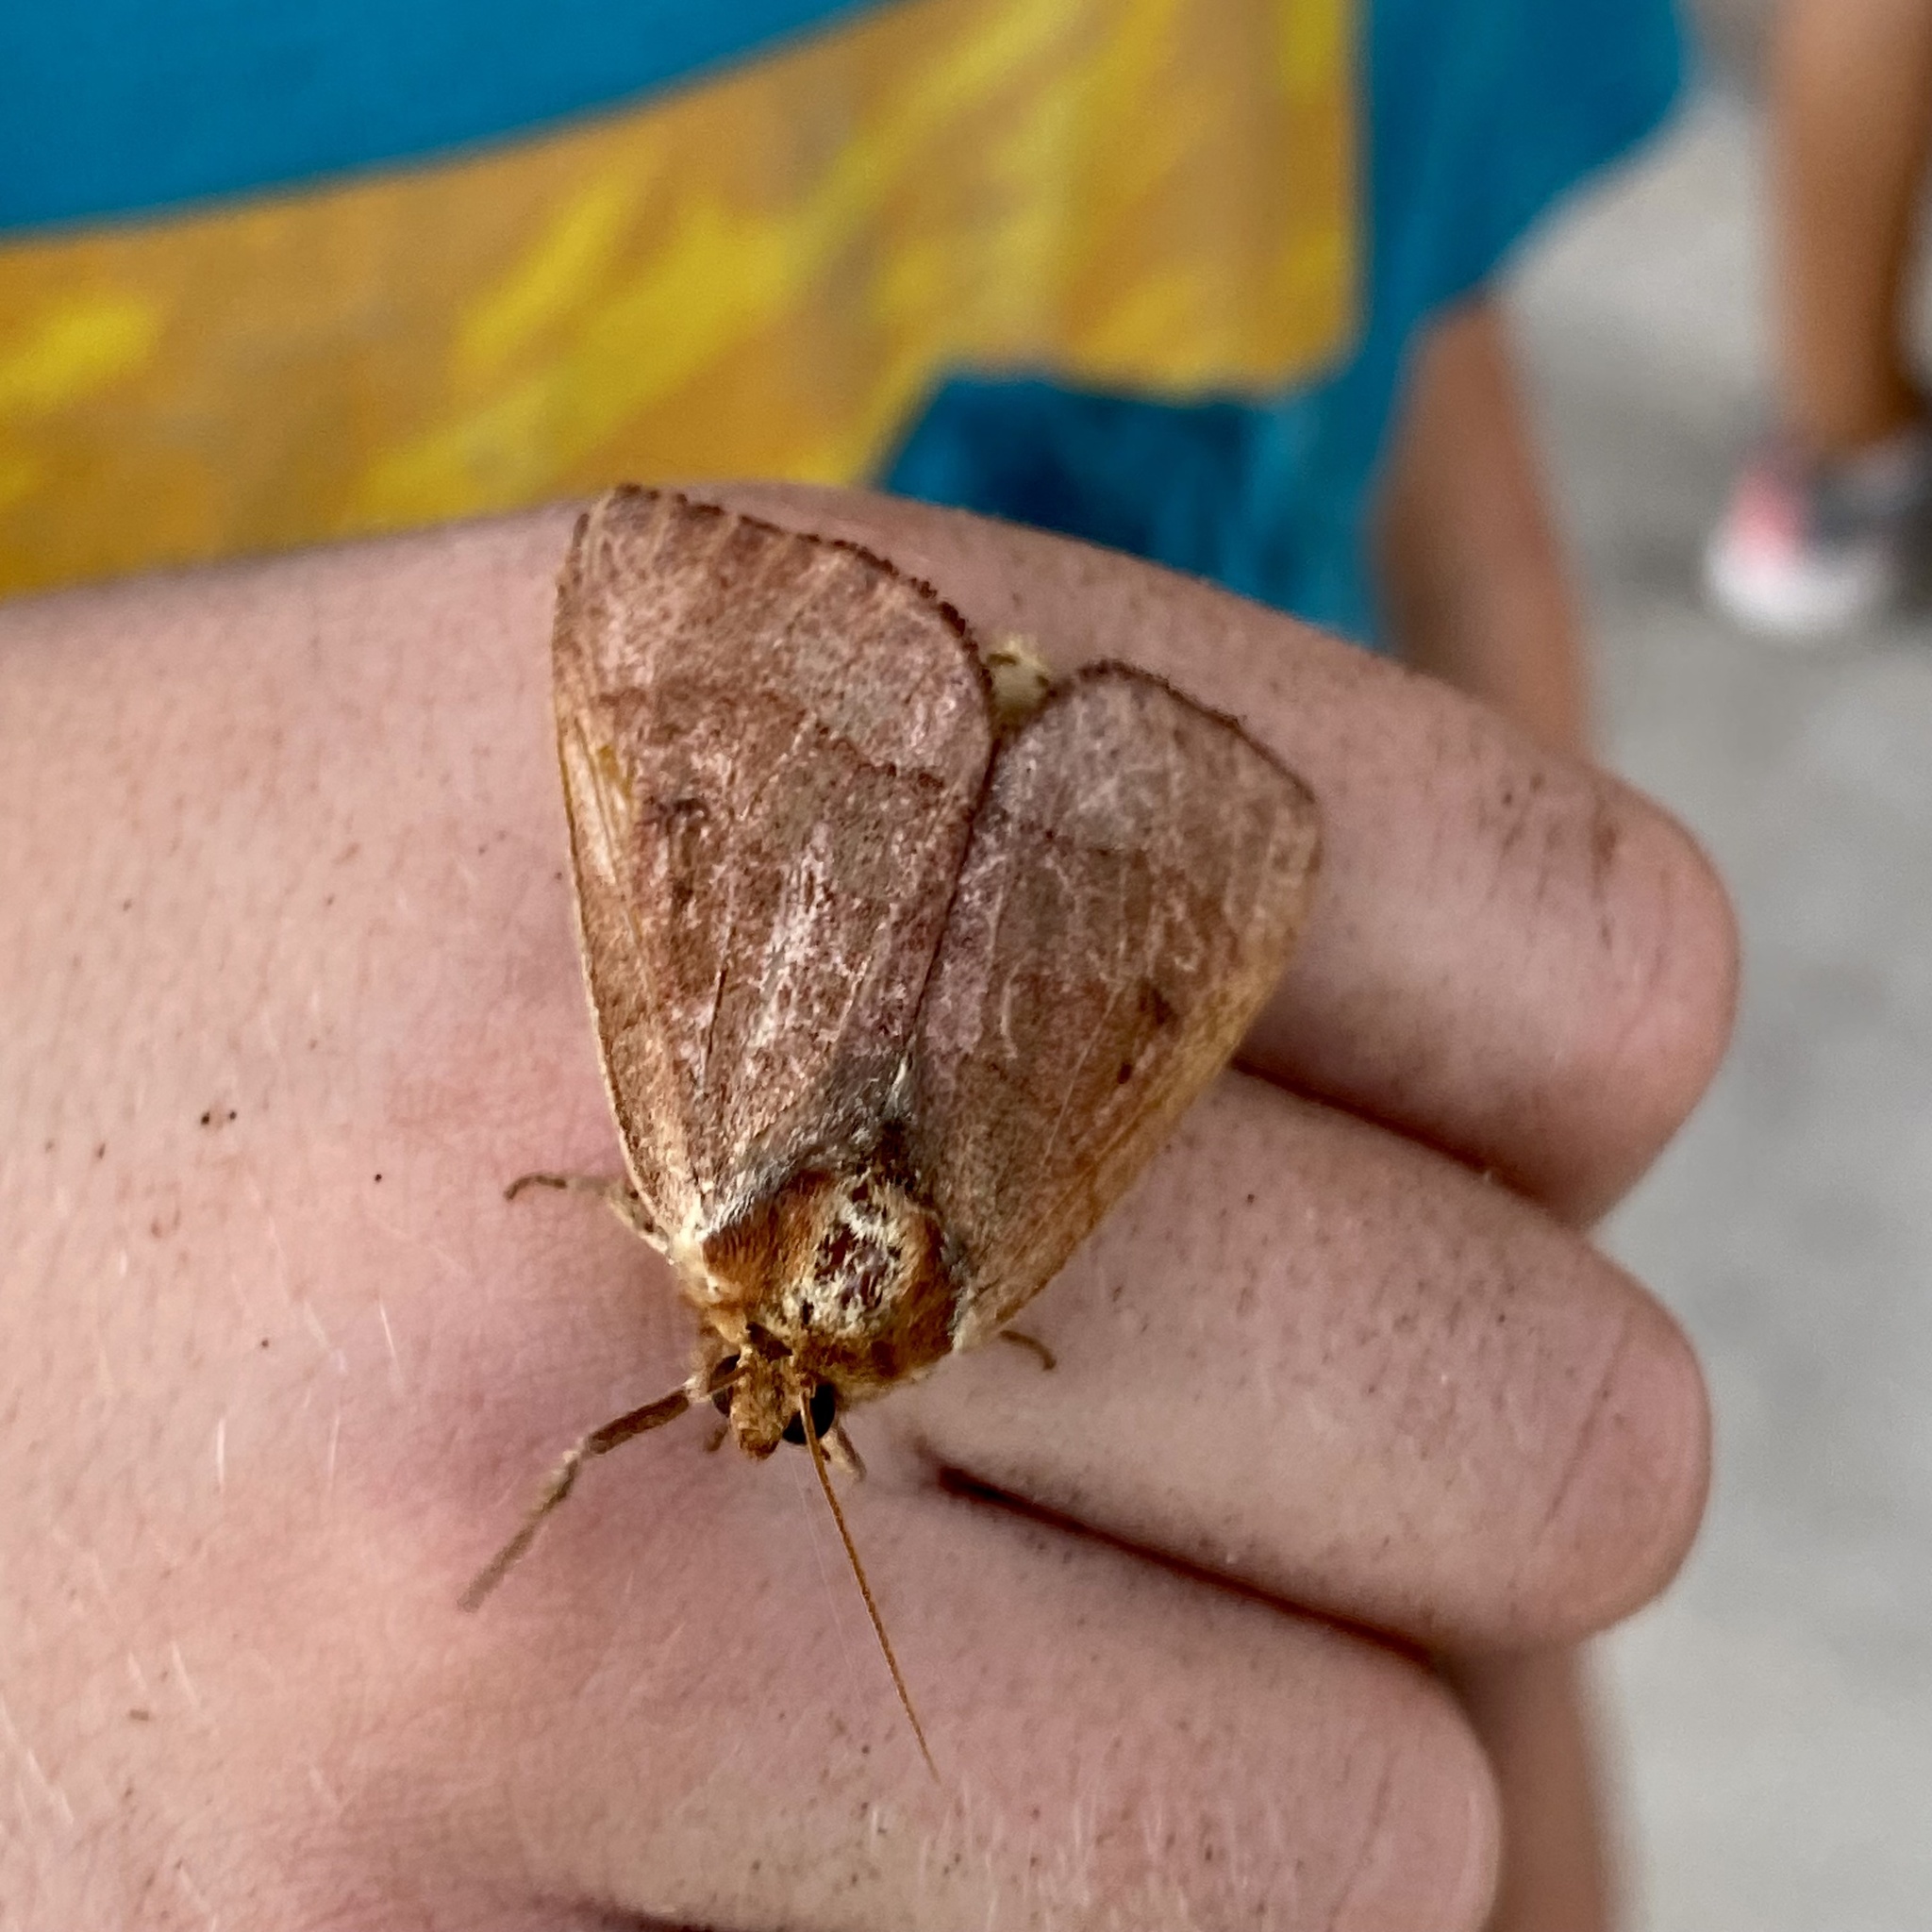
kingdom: Animalia
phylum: Arthropoda
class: Insecta
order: Lepidoptera
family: Notodontidae
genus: Datana
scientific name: Datana ranaeceps
